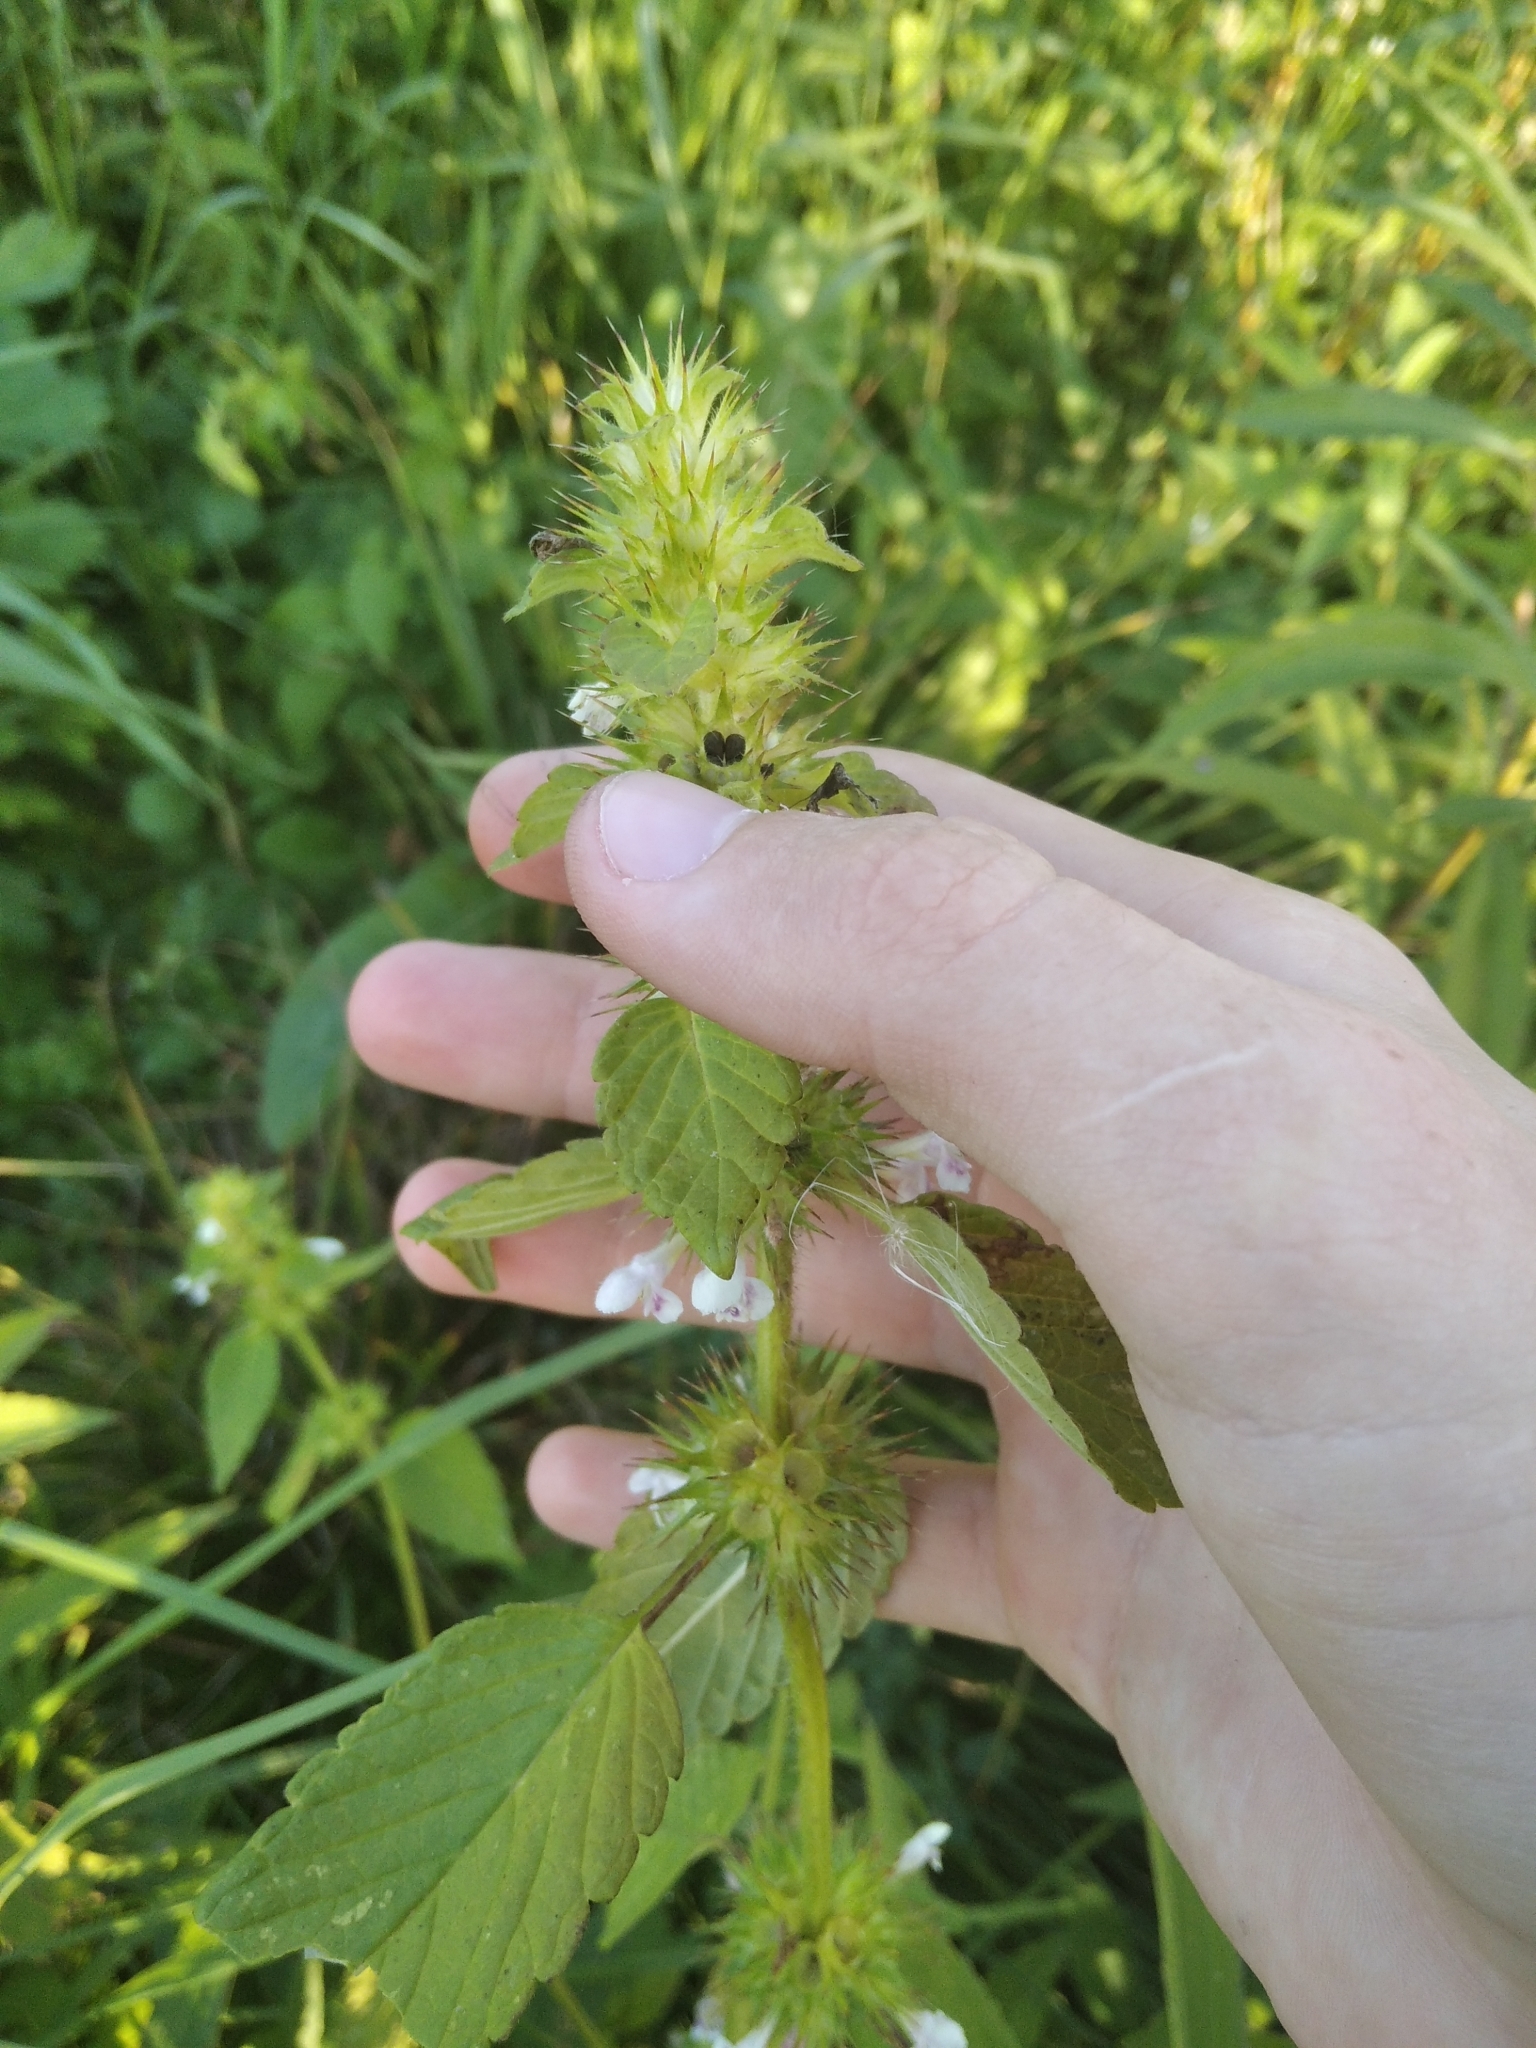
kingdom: Plantae
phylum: Tracheophyta
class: Magnoliopsida
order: Lamiales
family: Lamiaceae
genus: Galeopsis
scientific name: Galeopsis tetrahit
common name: Common hemp-nettle
